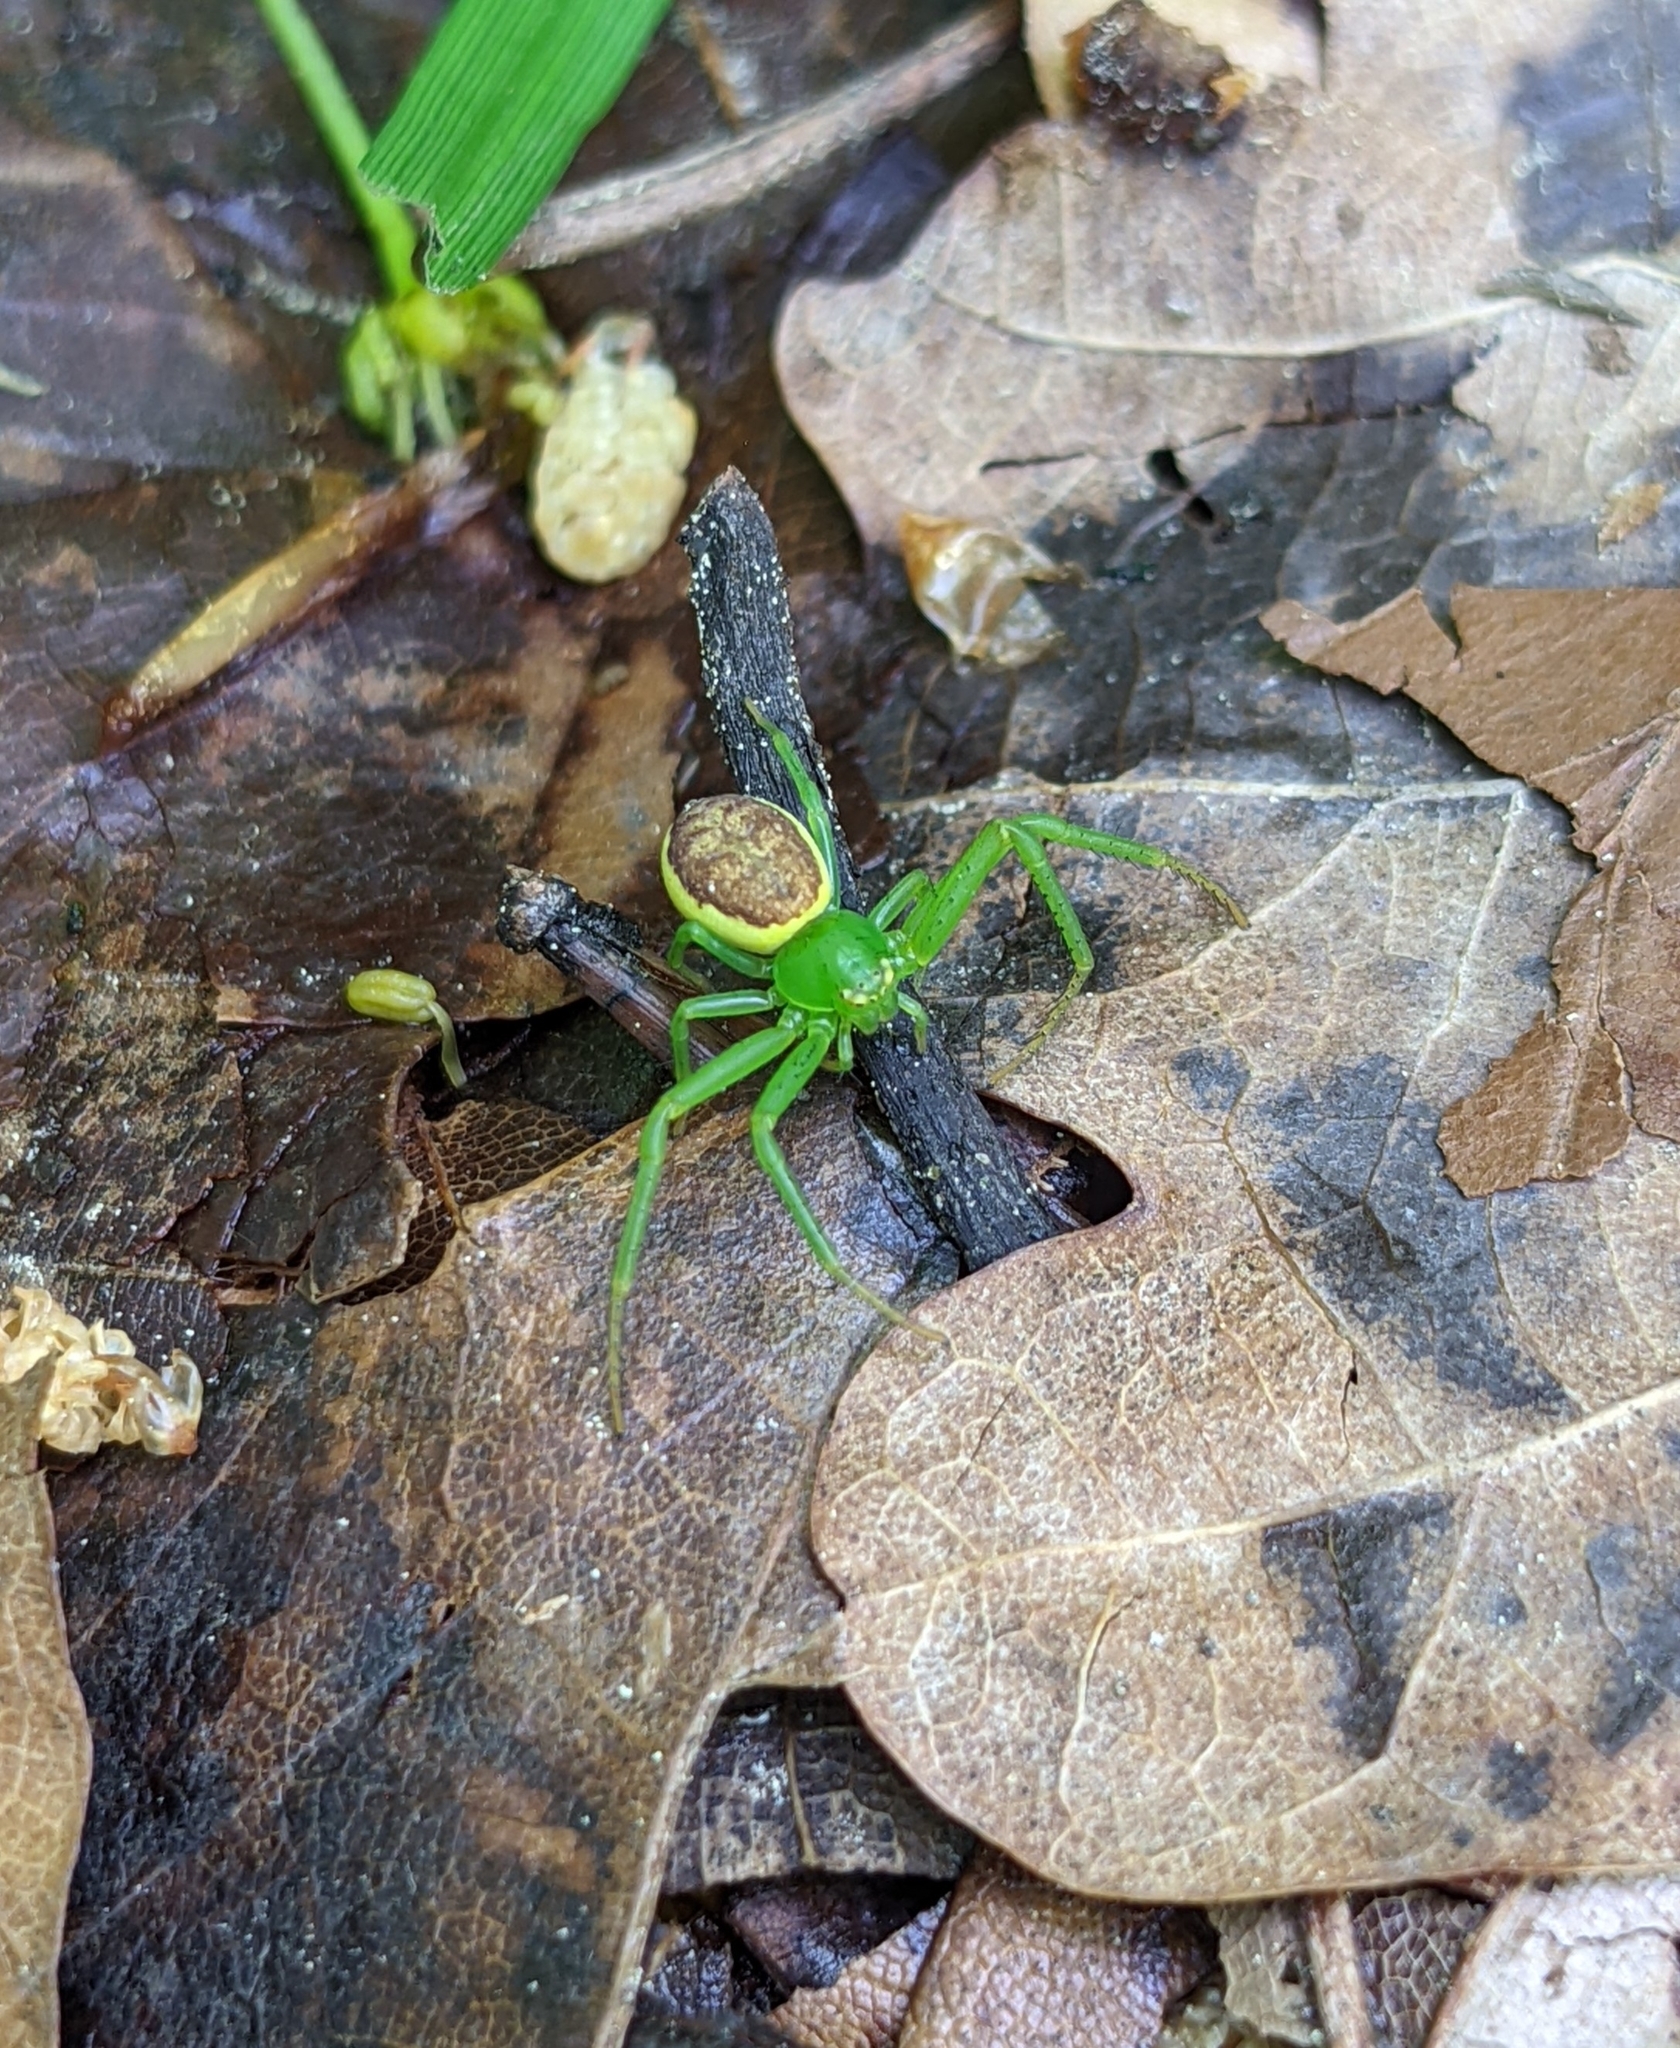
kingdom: Animalia
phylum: Arthropoda
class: Arachnida
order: Araneae
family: Thomisidae
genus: Diaea
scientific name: Diaea dorsata
